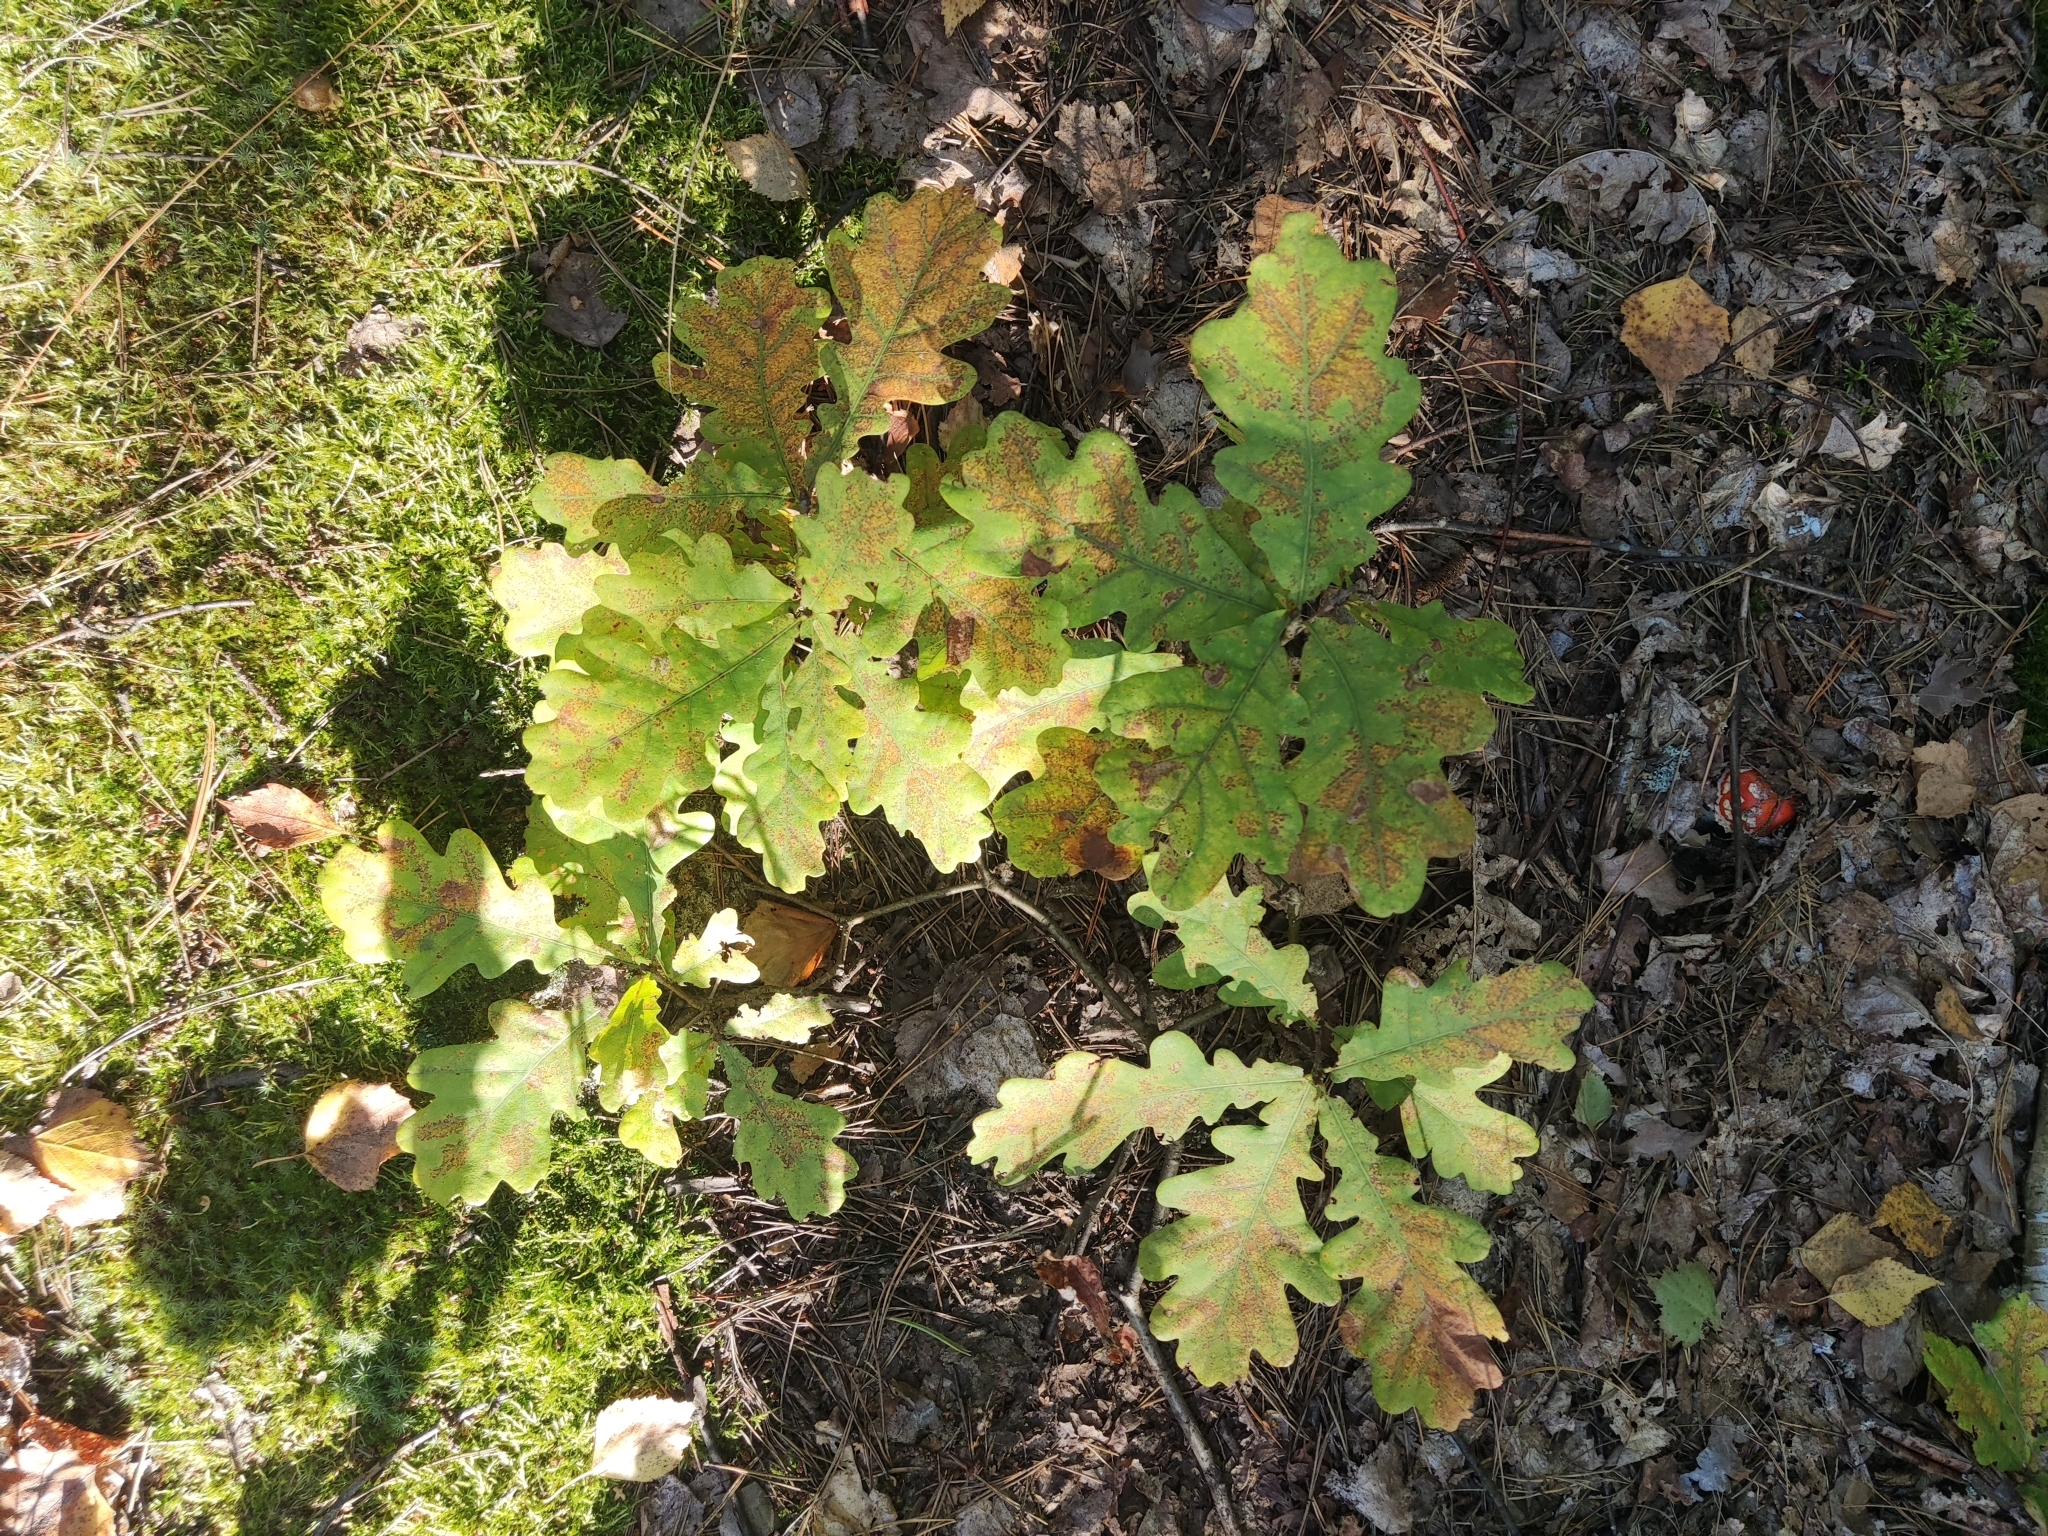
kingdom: Plantae
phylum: Tracheophyta
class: Magnoliopsida
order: Fagales
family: Fagaceae
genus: Quercus
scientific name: Quercus robur
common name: Pedunculate oak
